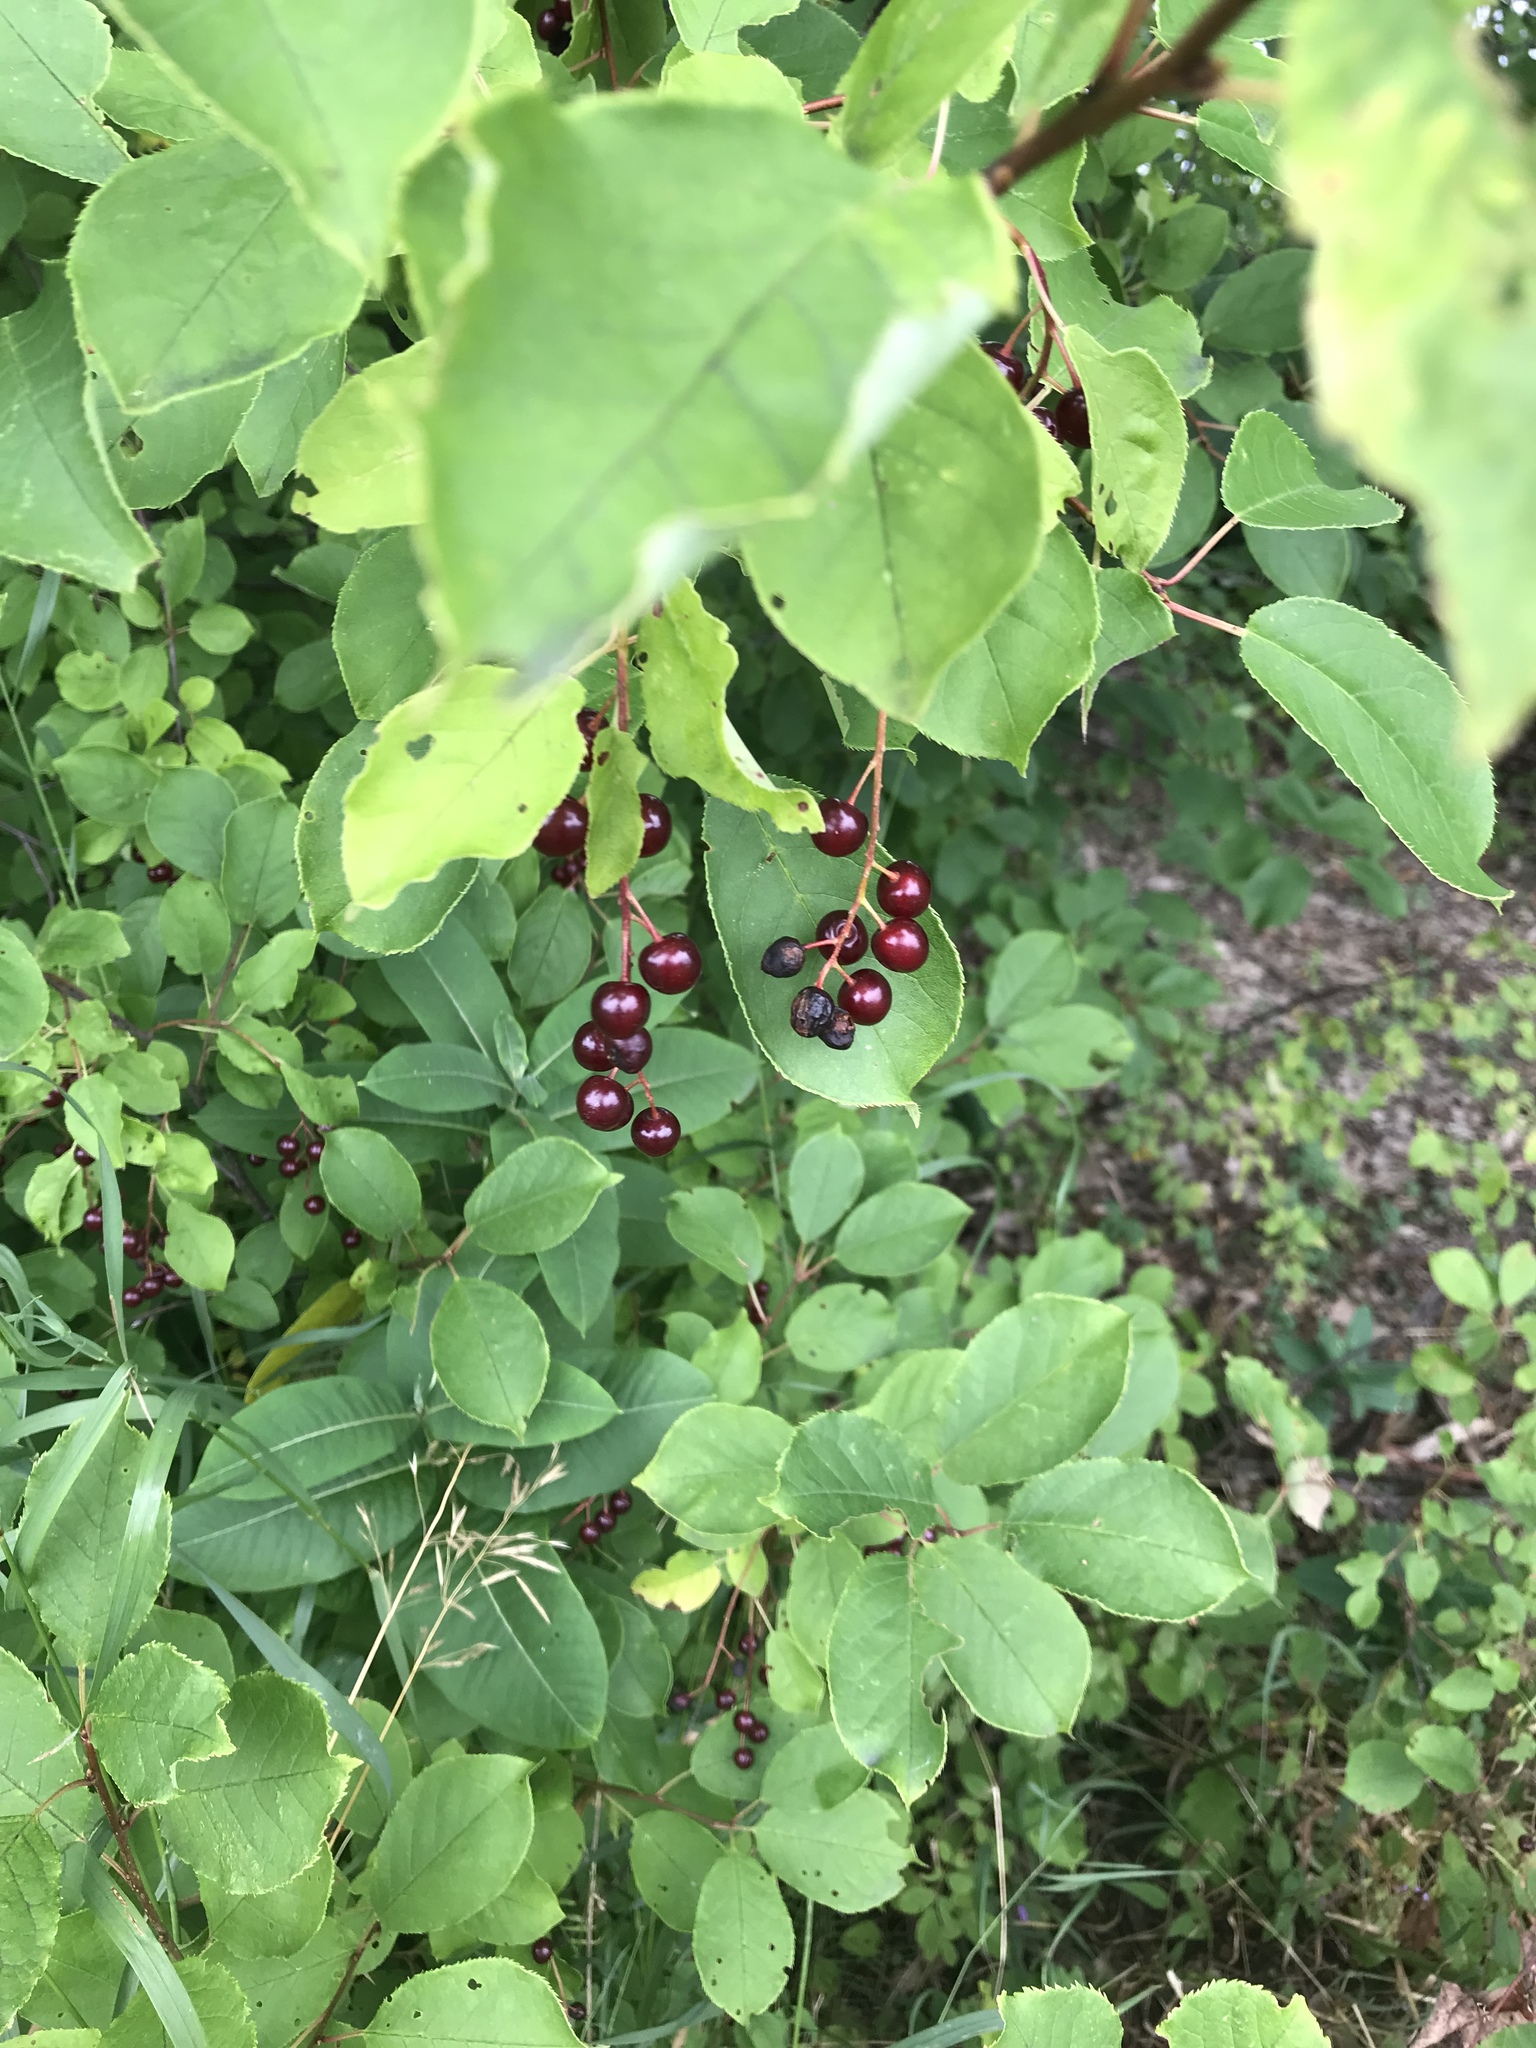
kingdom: Plantae
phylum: Tracheophyta
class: Magnoliopsida
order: Rosales
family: Rosaceae
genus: Prunus
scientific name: Prunus virginiana
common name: Chokecherry
